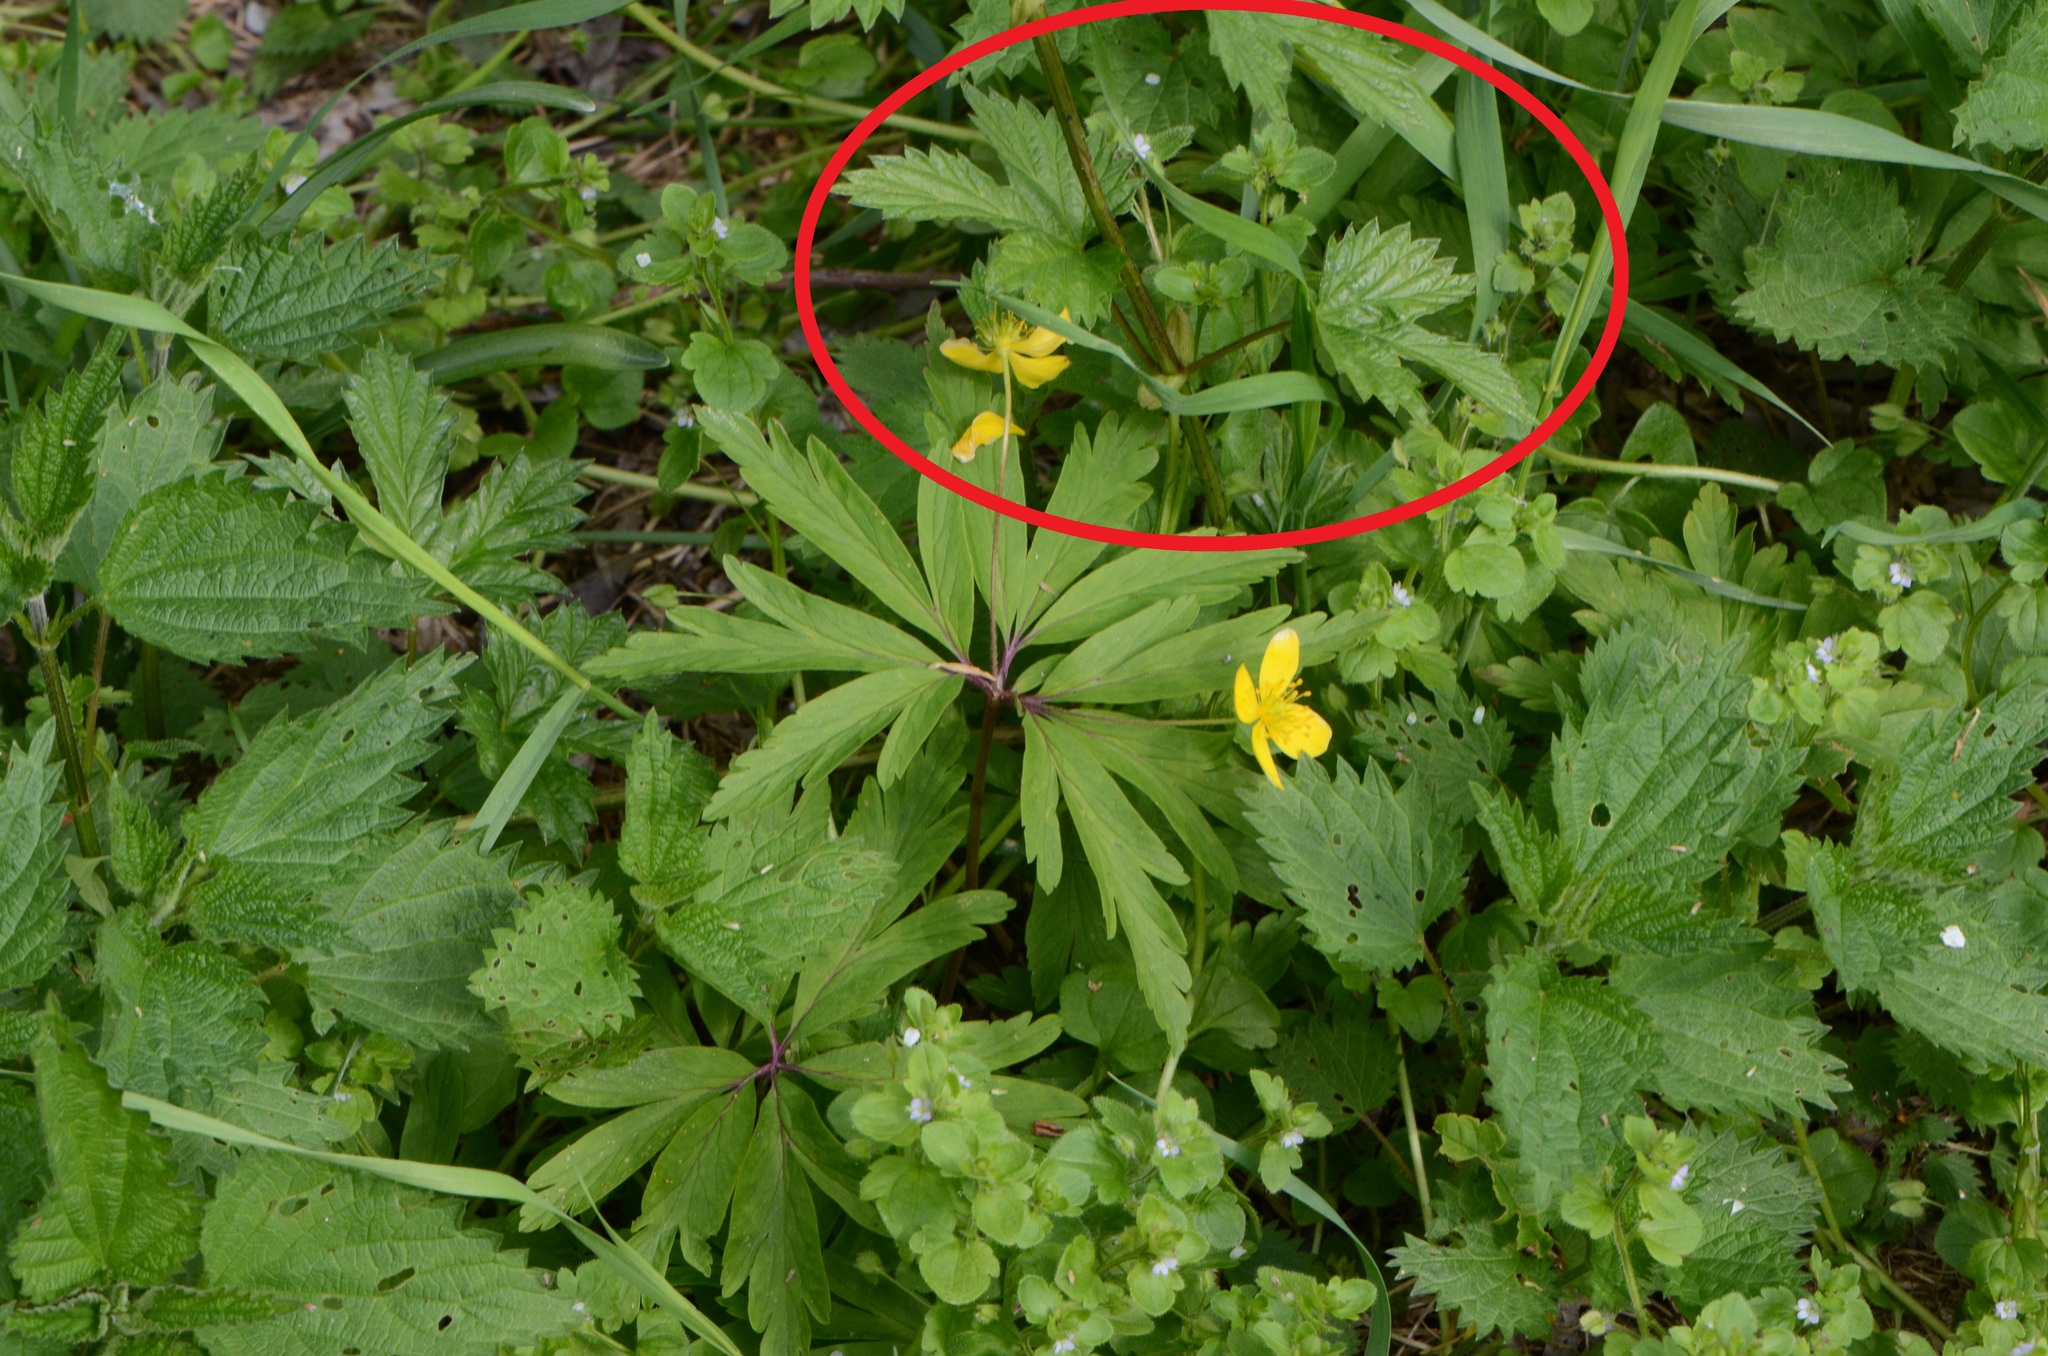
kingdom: Plantae
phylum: Tracheophyta
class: Magnoliopsida
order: Rosales
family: Cannabaceae
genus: Humulus
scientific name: Humulus lupulus
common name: Hop
